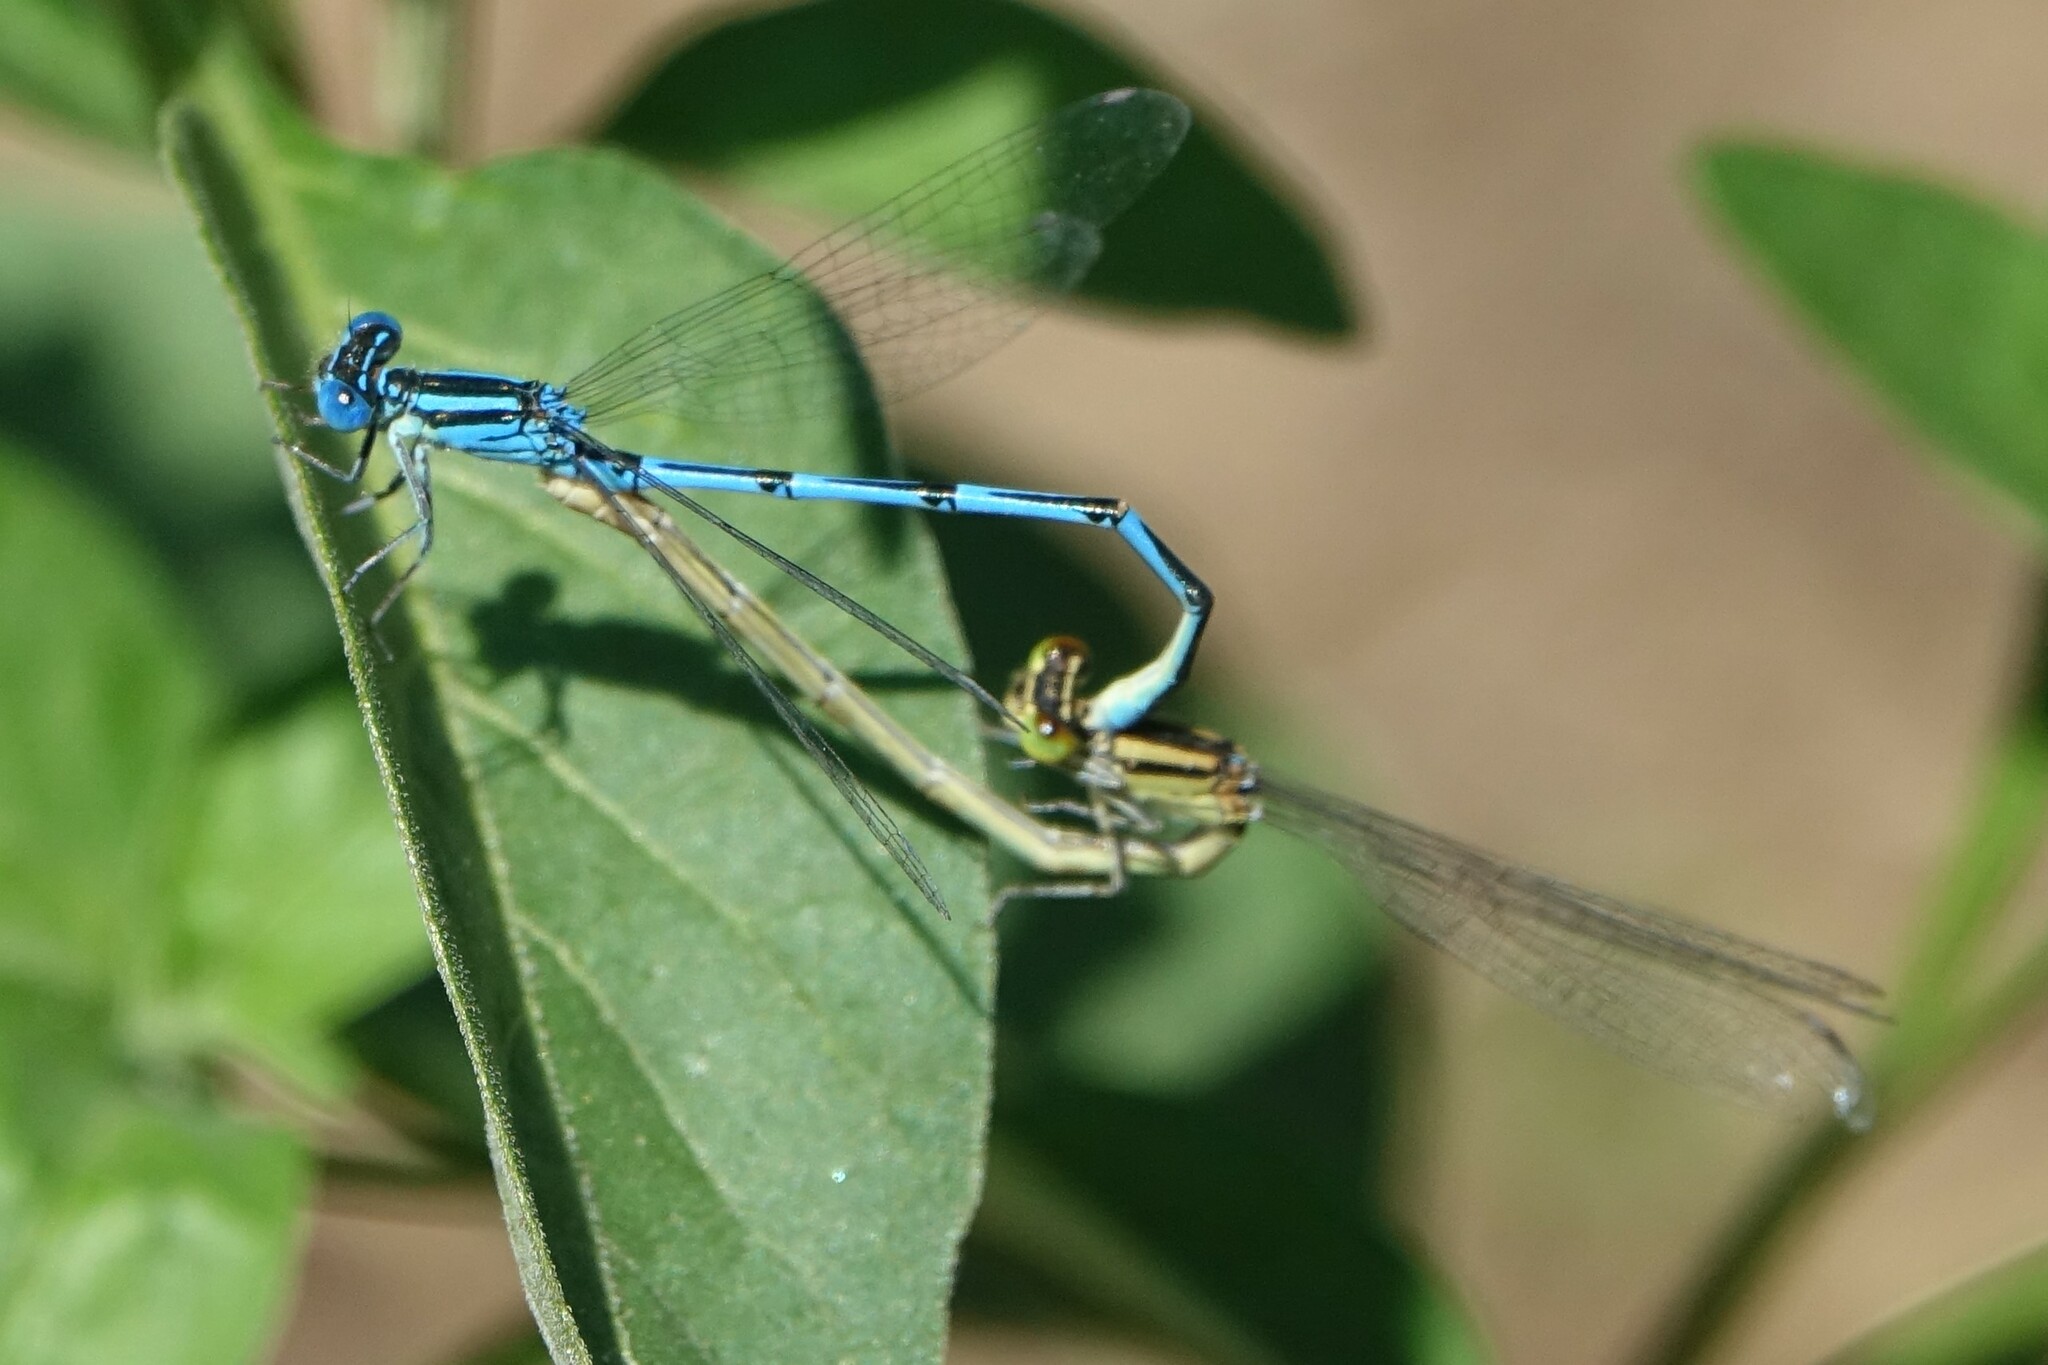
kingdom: Animalia
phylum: Arthropoda
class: Insecta
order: Odonata
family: Coenagrionidae
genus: Erythromma
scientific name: Erythromma lindenii
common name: Blue-eye
